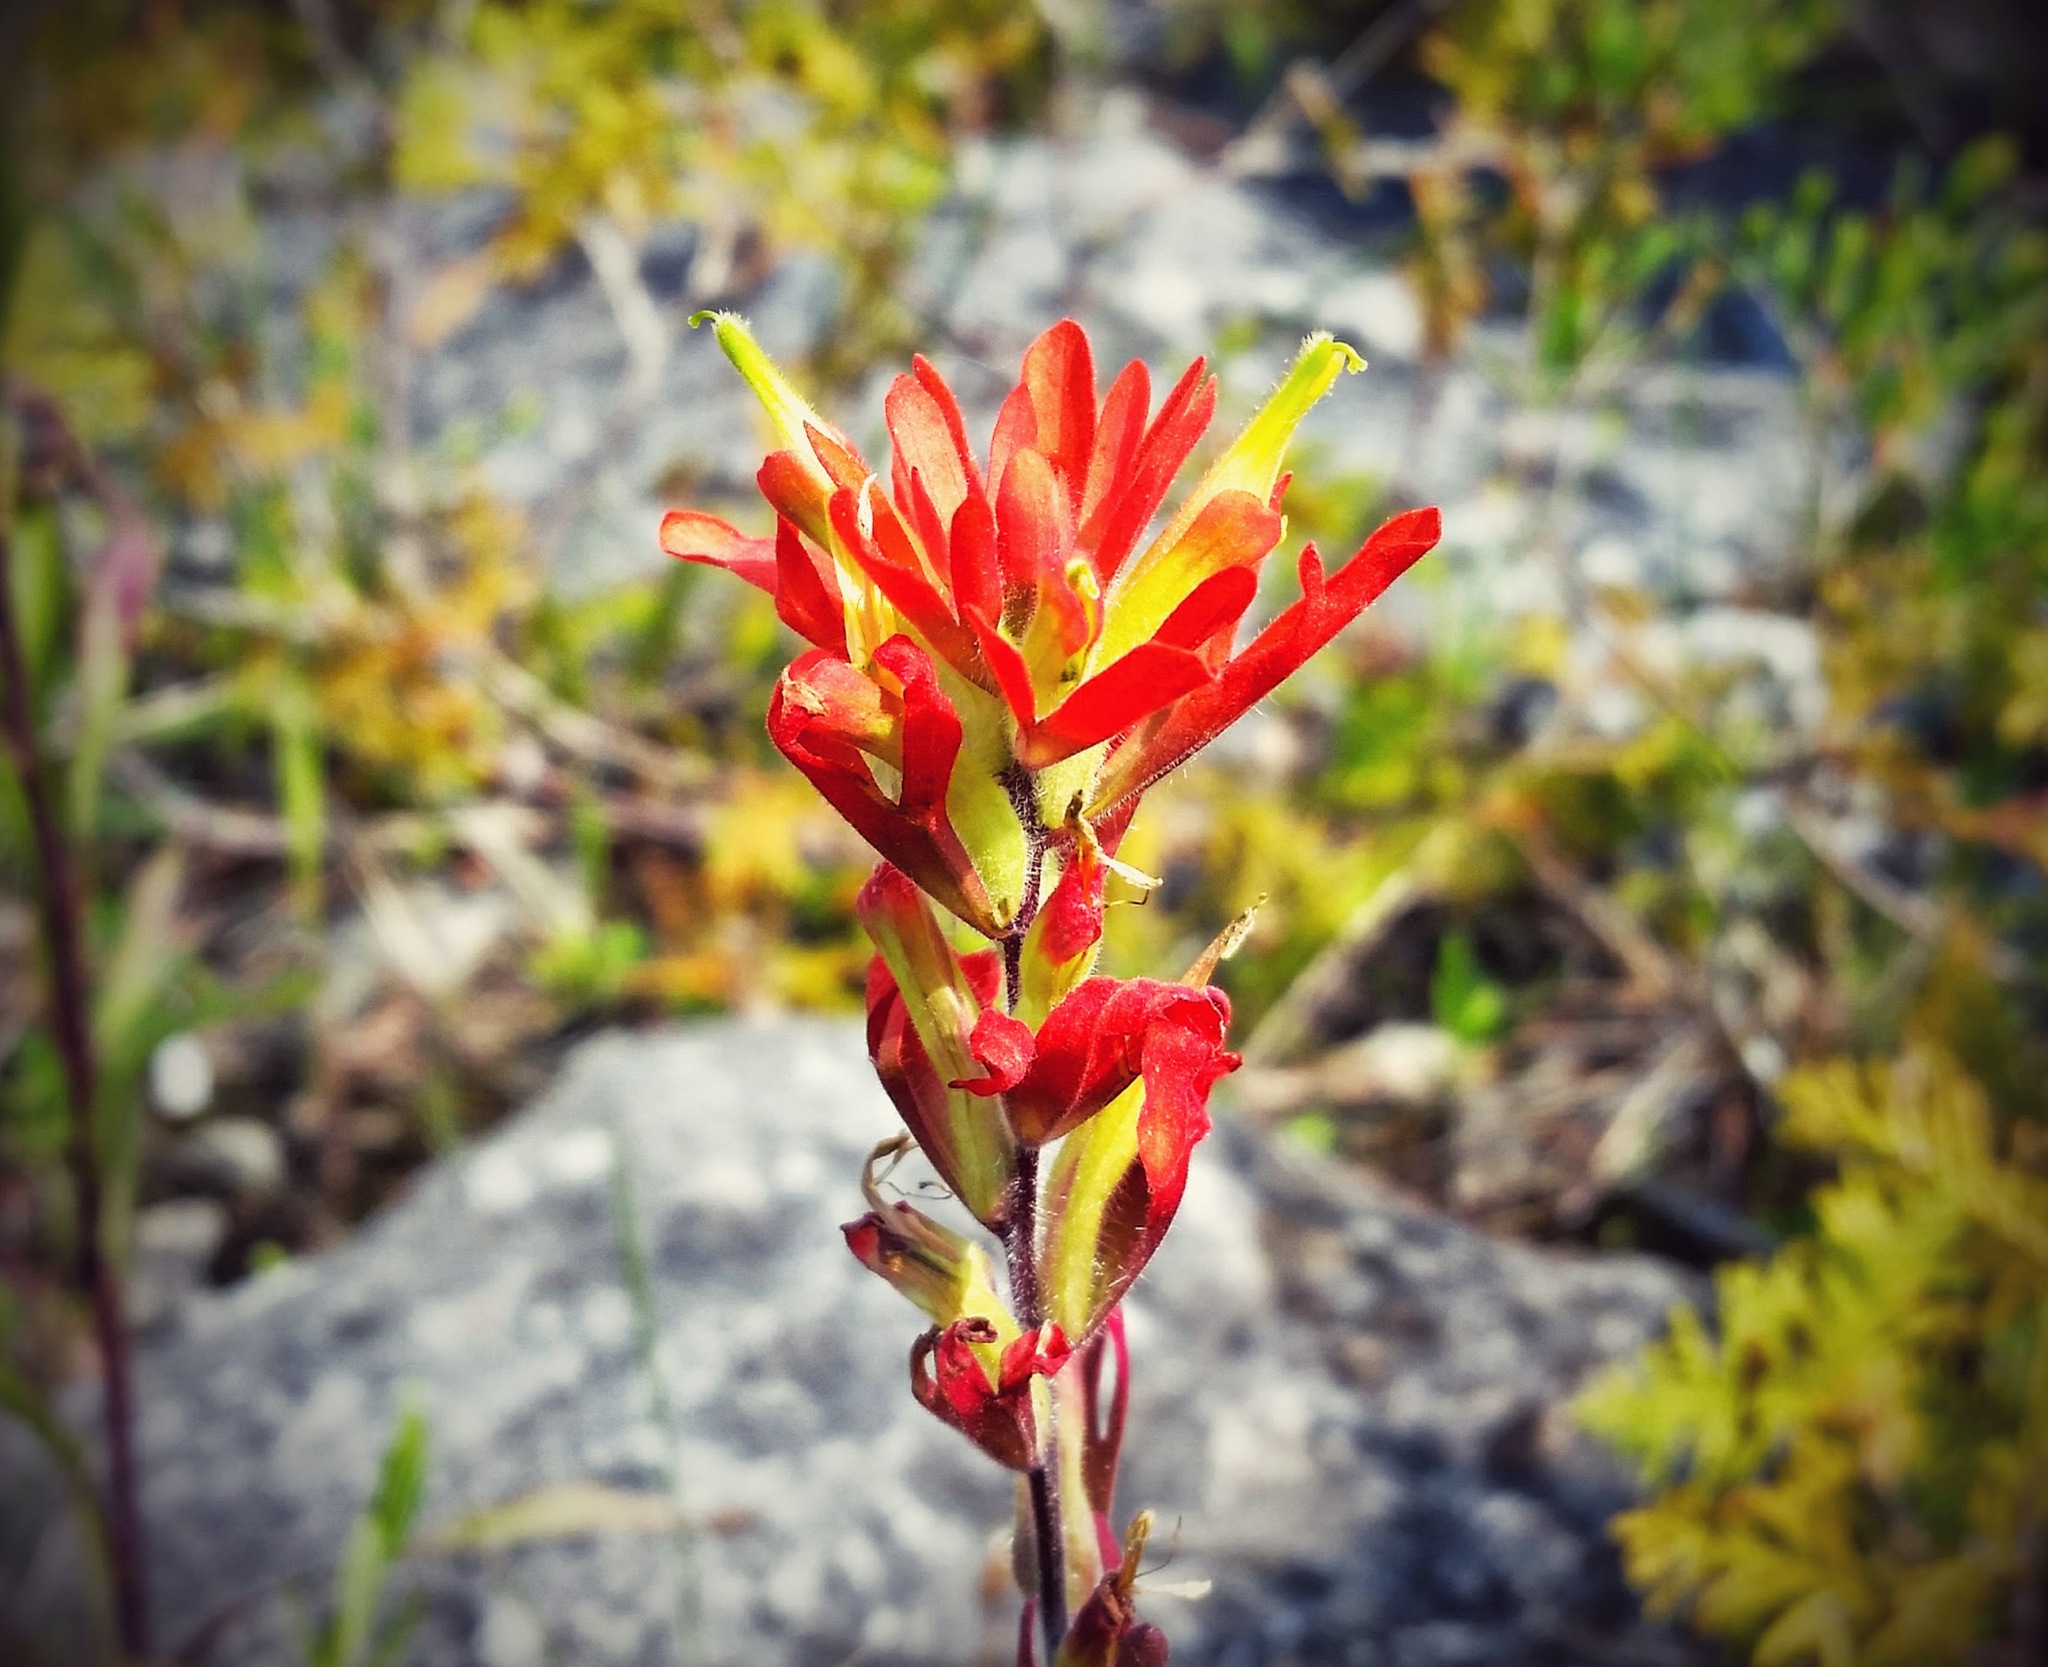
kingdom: Plantae
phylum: Tracheophyta
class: Magnoliopsida
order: Lamiales
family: Orobanchaceae
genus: Castilleja
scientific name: Castilleja coccinea
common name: Scarlet paintbrush
